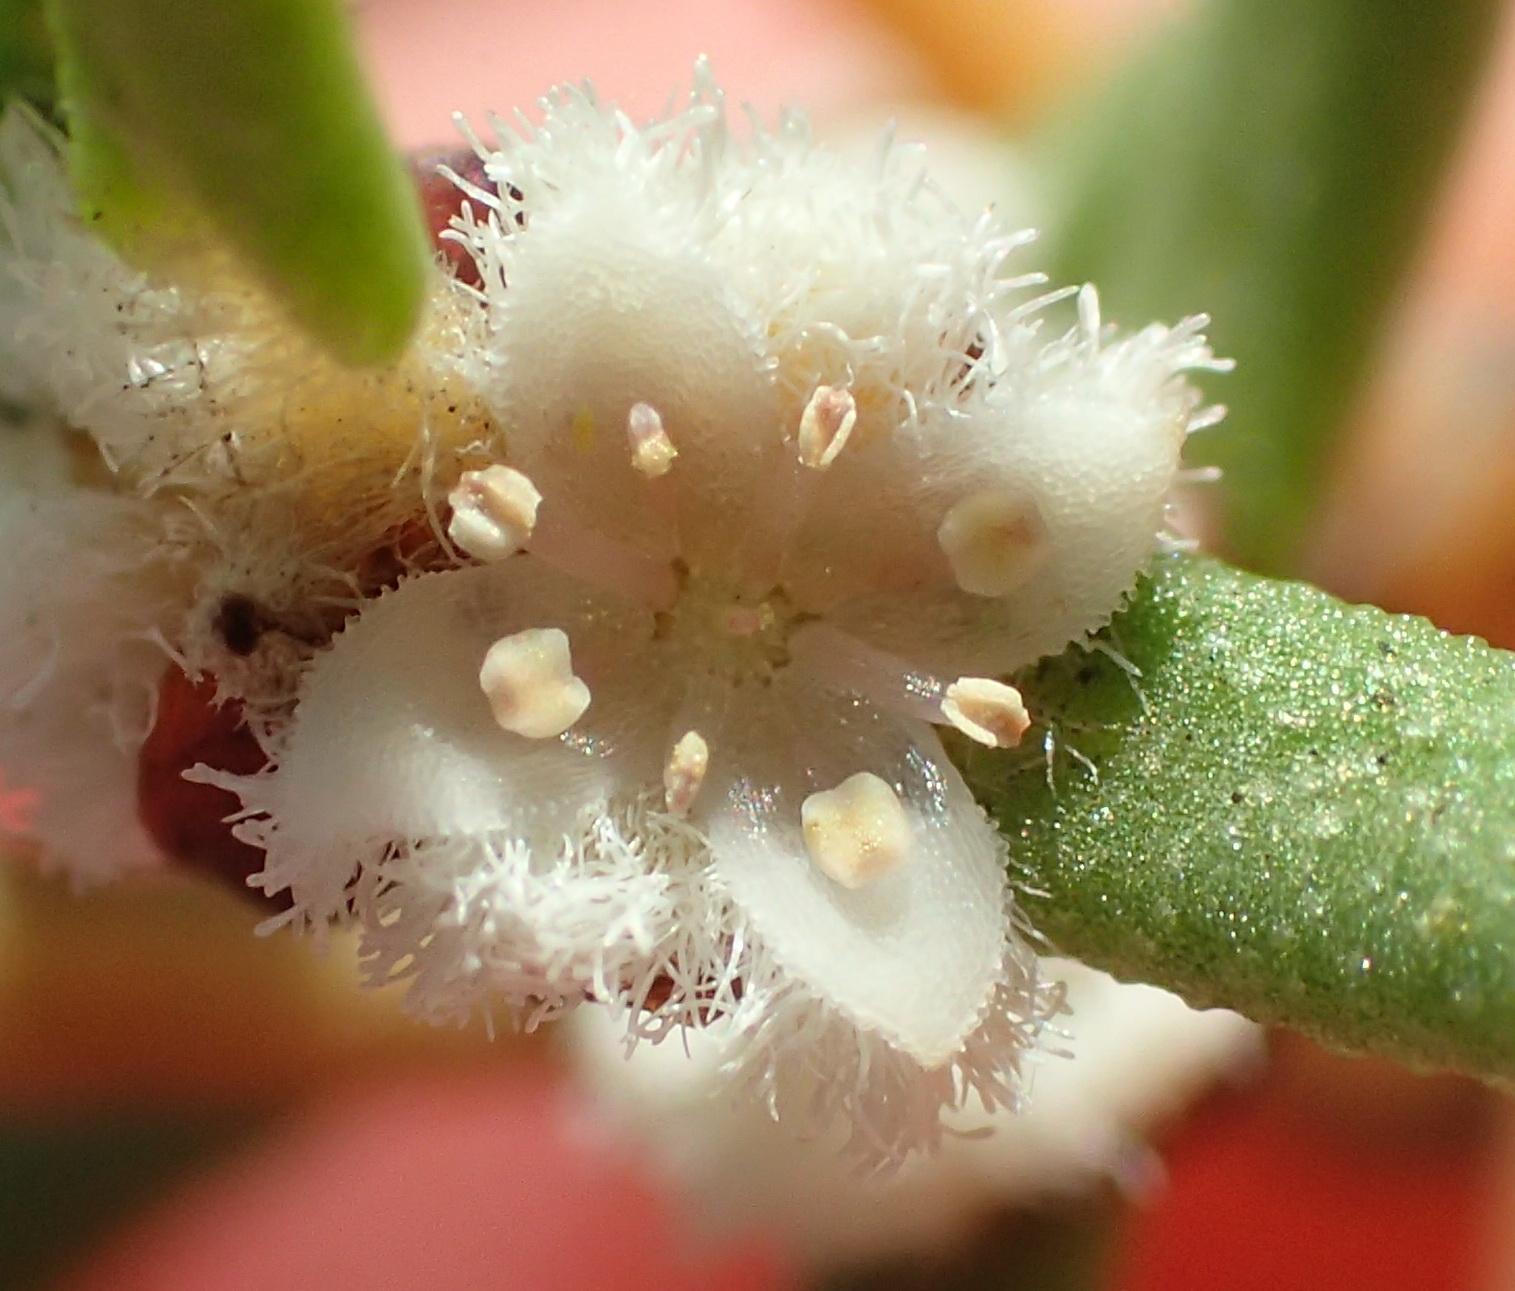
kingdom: Plantae
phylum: Tracheophyta
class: Magnoliopsida
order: Cornales
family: Grubbiaceae
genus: Grubbia
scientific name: Grubbia rosmarinifolia
